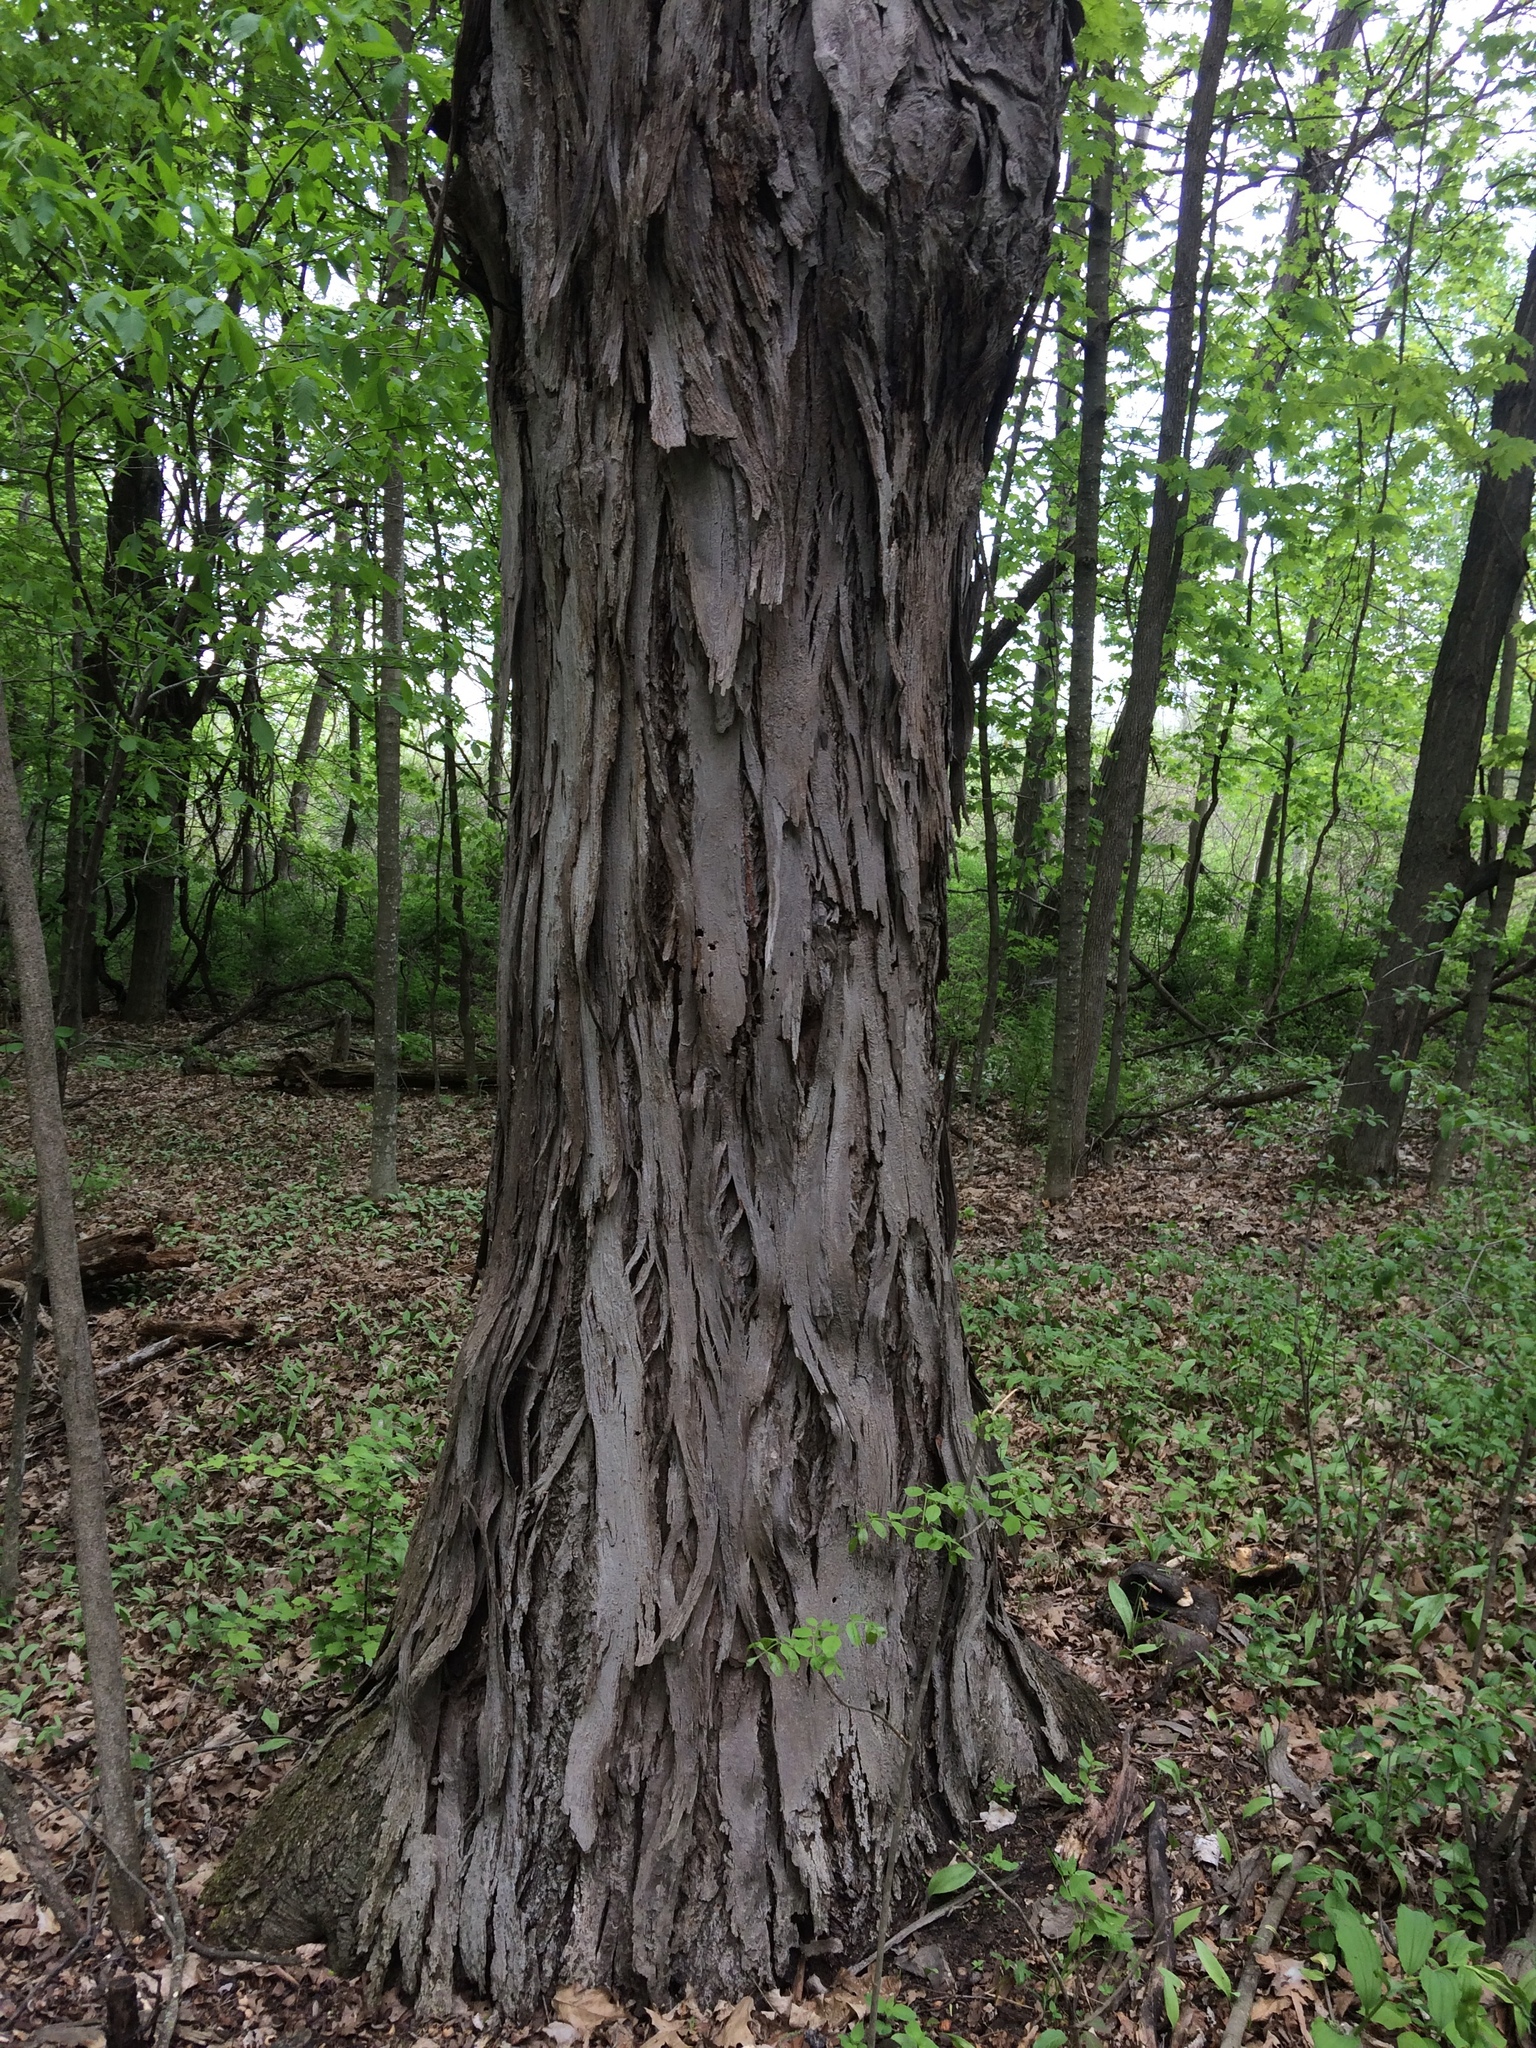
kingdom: Plantae
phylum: Tracheophyta
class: Magnoliopsida
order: Fagales
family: Juglandaceae
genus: Carya
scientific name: Carya ovata
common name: Shagbark hickory
